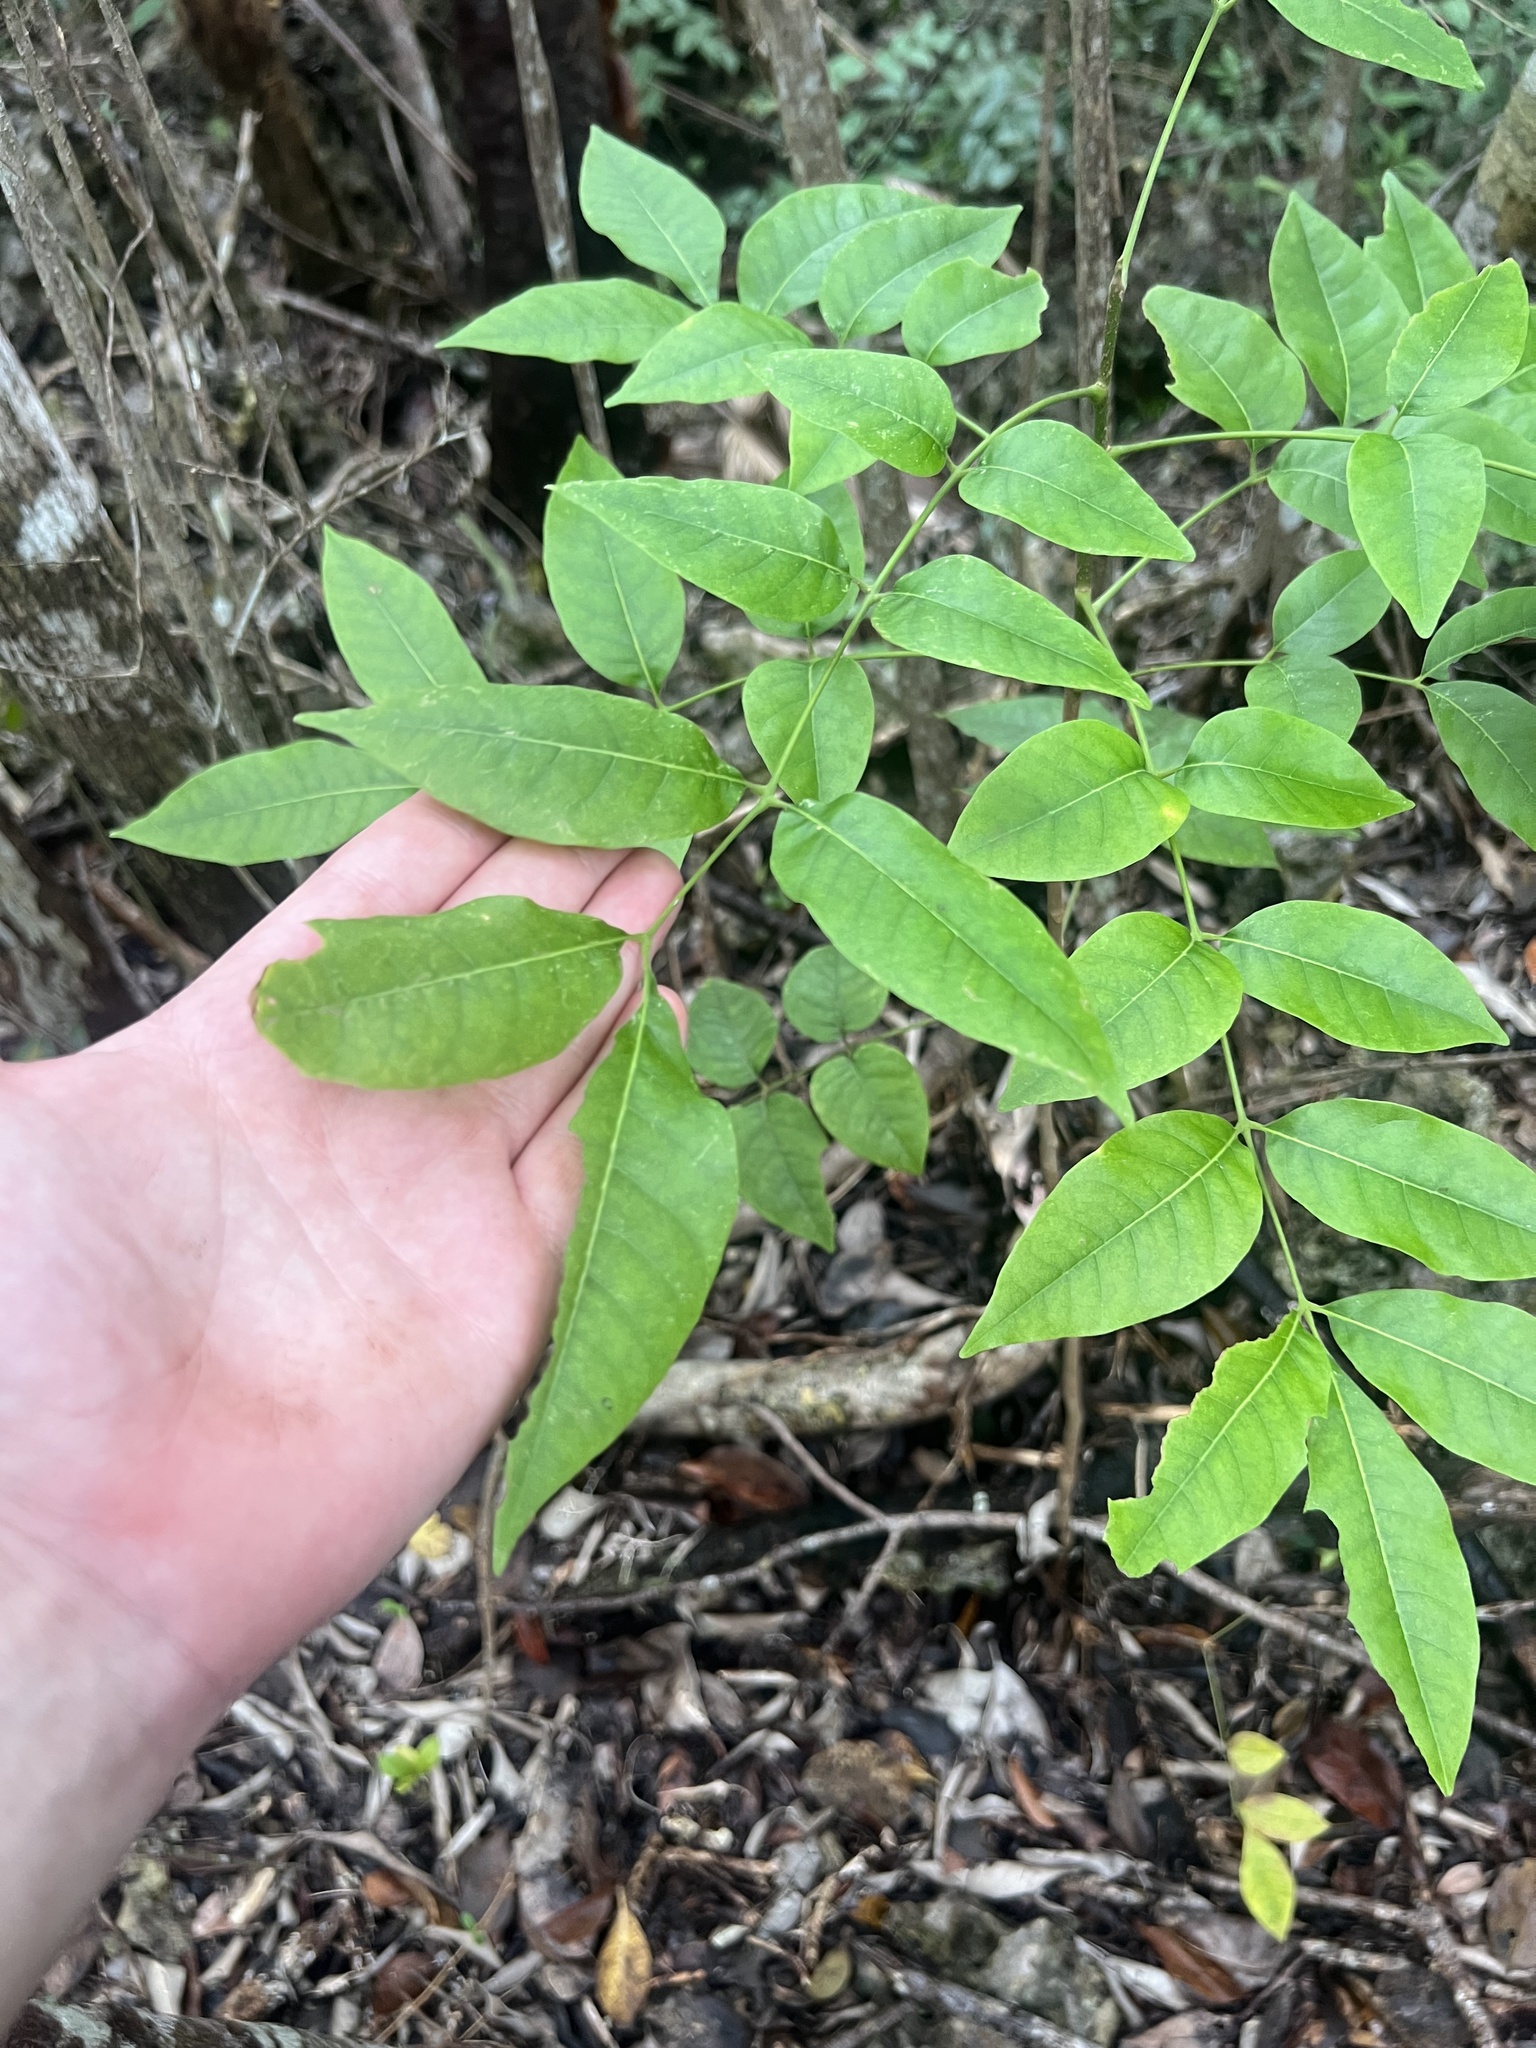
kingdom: Plantae
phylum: Tracheophyta
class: Magnoliopsida
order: Sapindales
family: Burseraceae
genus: Bursera
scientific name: Bursera simaruba
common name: Turpentine tree
